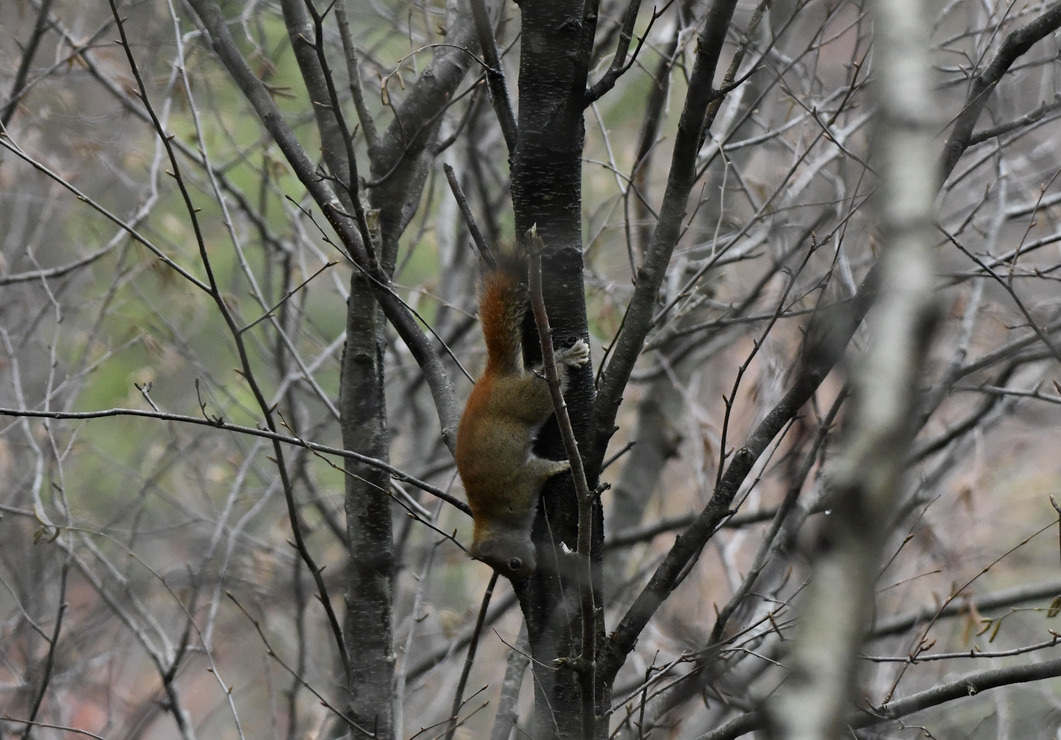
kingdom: Animalia
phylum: Chordata
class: Mammalia
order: Rodentia
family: Sciuridae
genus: Tamiasciurus
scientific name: Tamiasciurus hudsonicus
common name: Red squirrel
